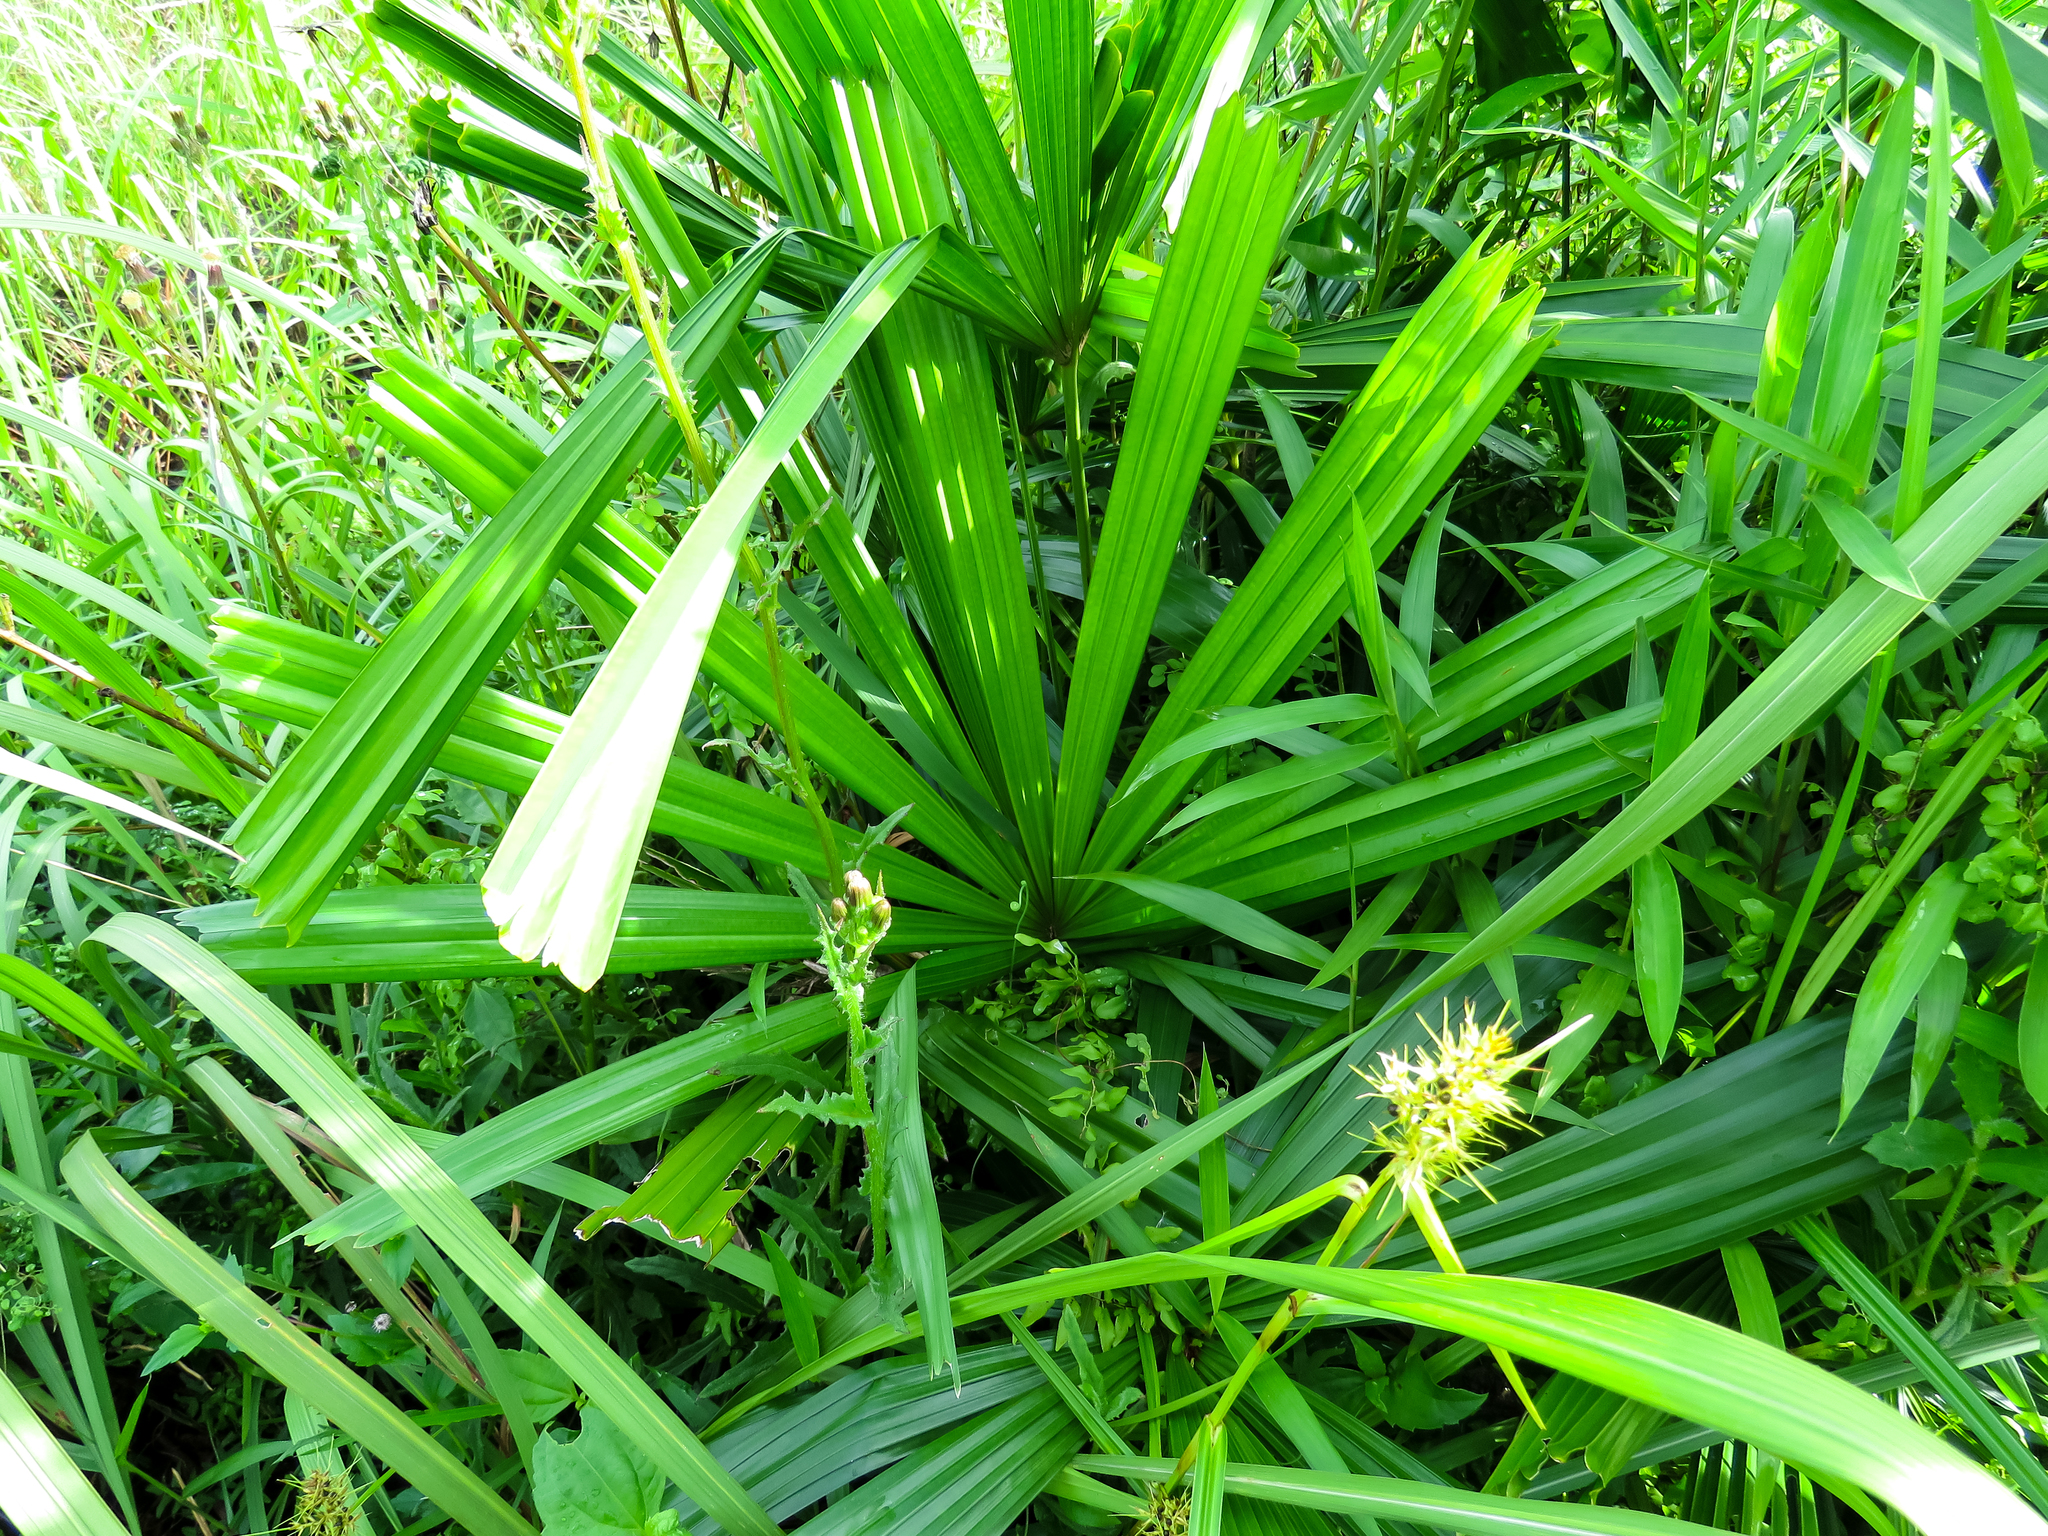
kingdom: Plantae
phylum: Tracheophyta
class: Liliopsida
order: Arecales
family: Arecaceae
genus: Licuala
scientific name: Licuala spinosa
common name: Mangrove fan palm
